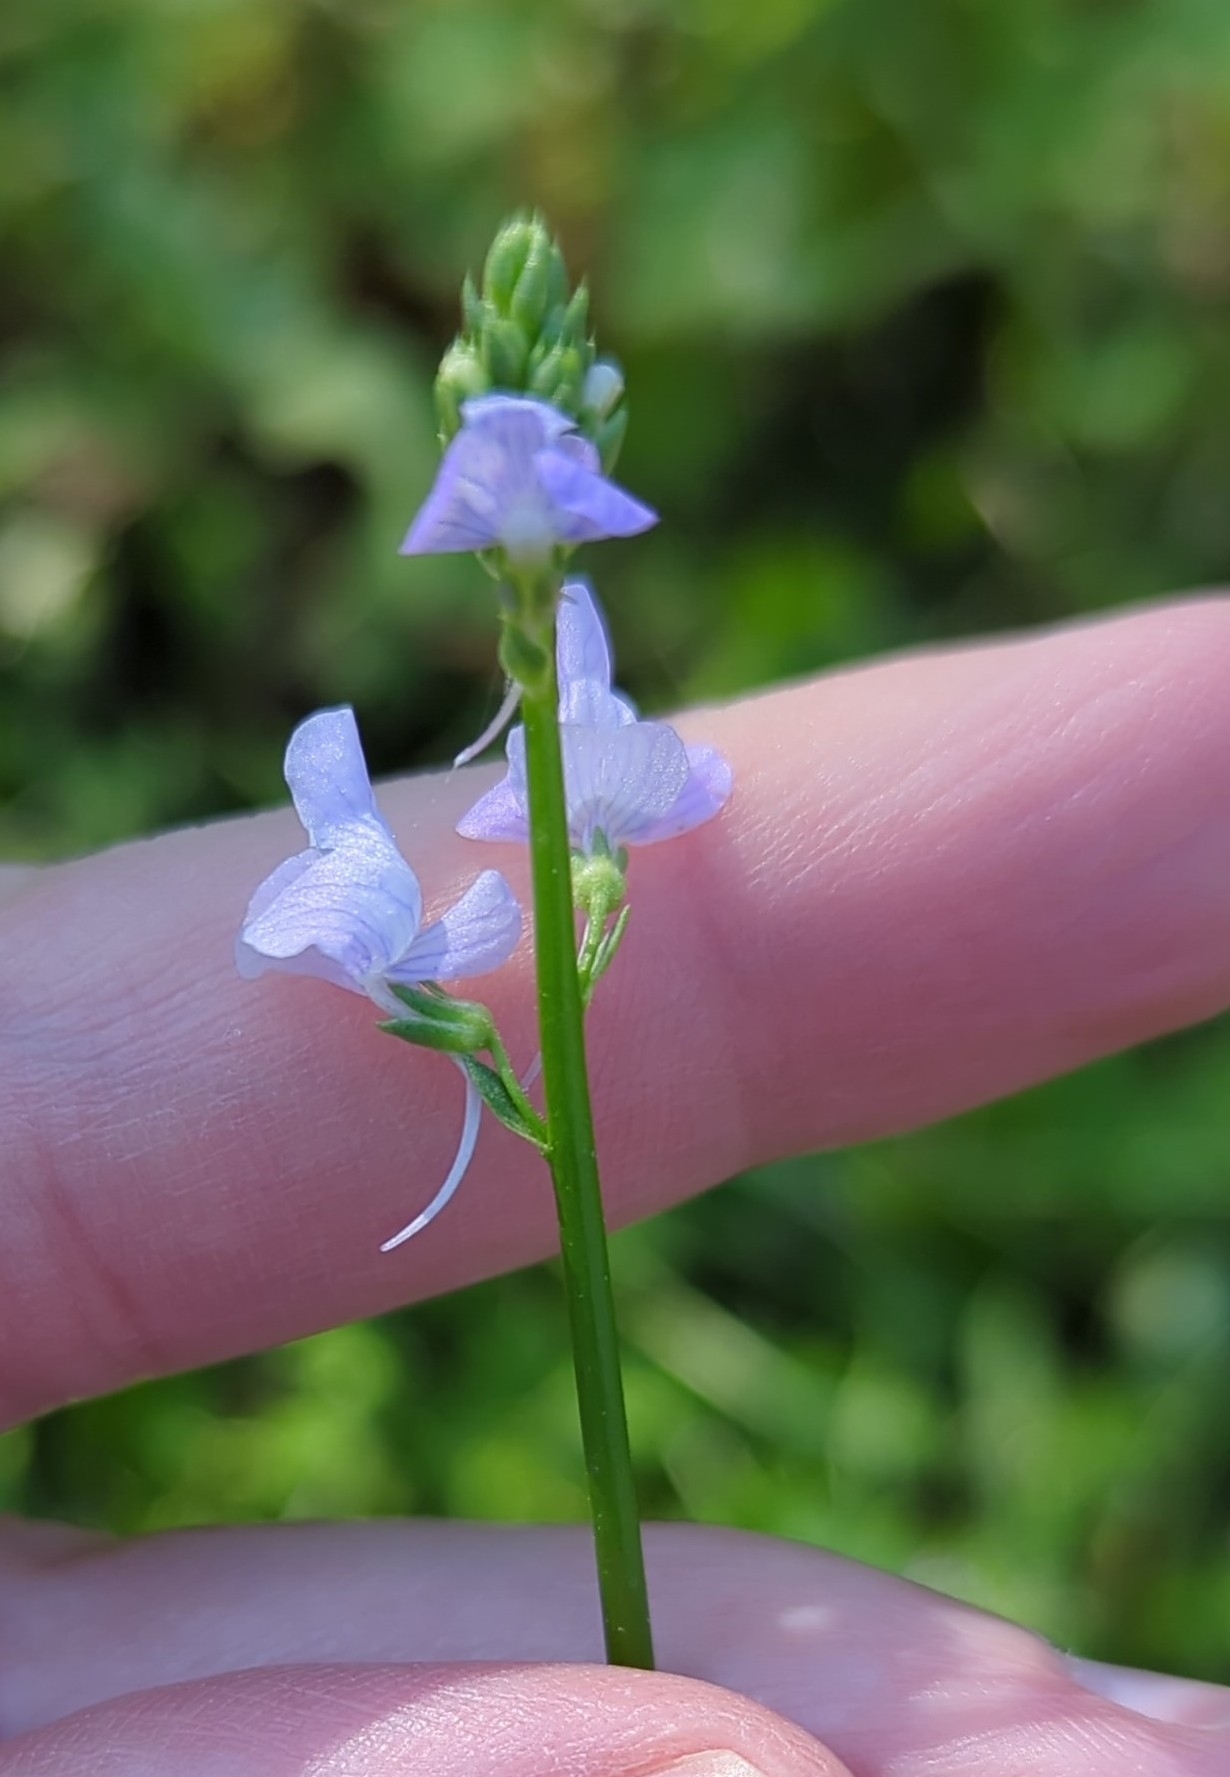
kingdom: Plantae
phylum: Tracheophyta
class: Magnoliopsida
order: Lamiales
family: Plantaginaceae
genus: Nuttallanthus
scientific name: Nuttallanthus texanus
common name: Texas toadflax
